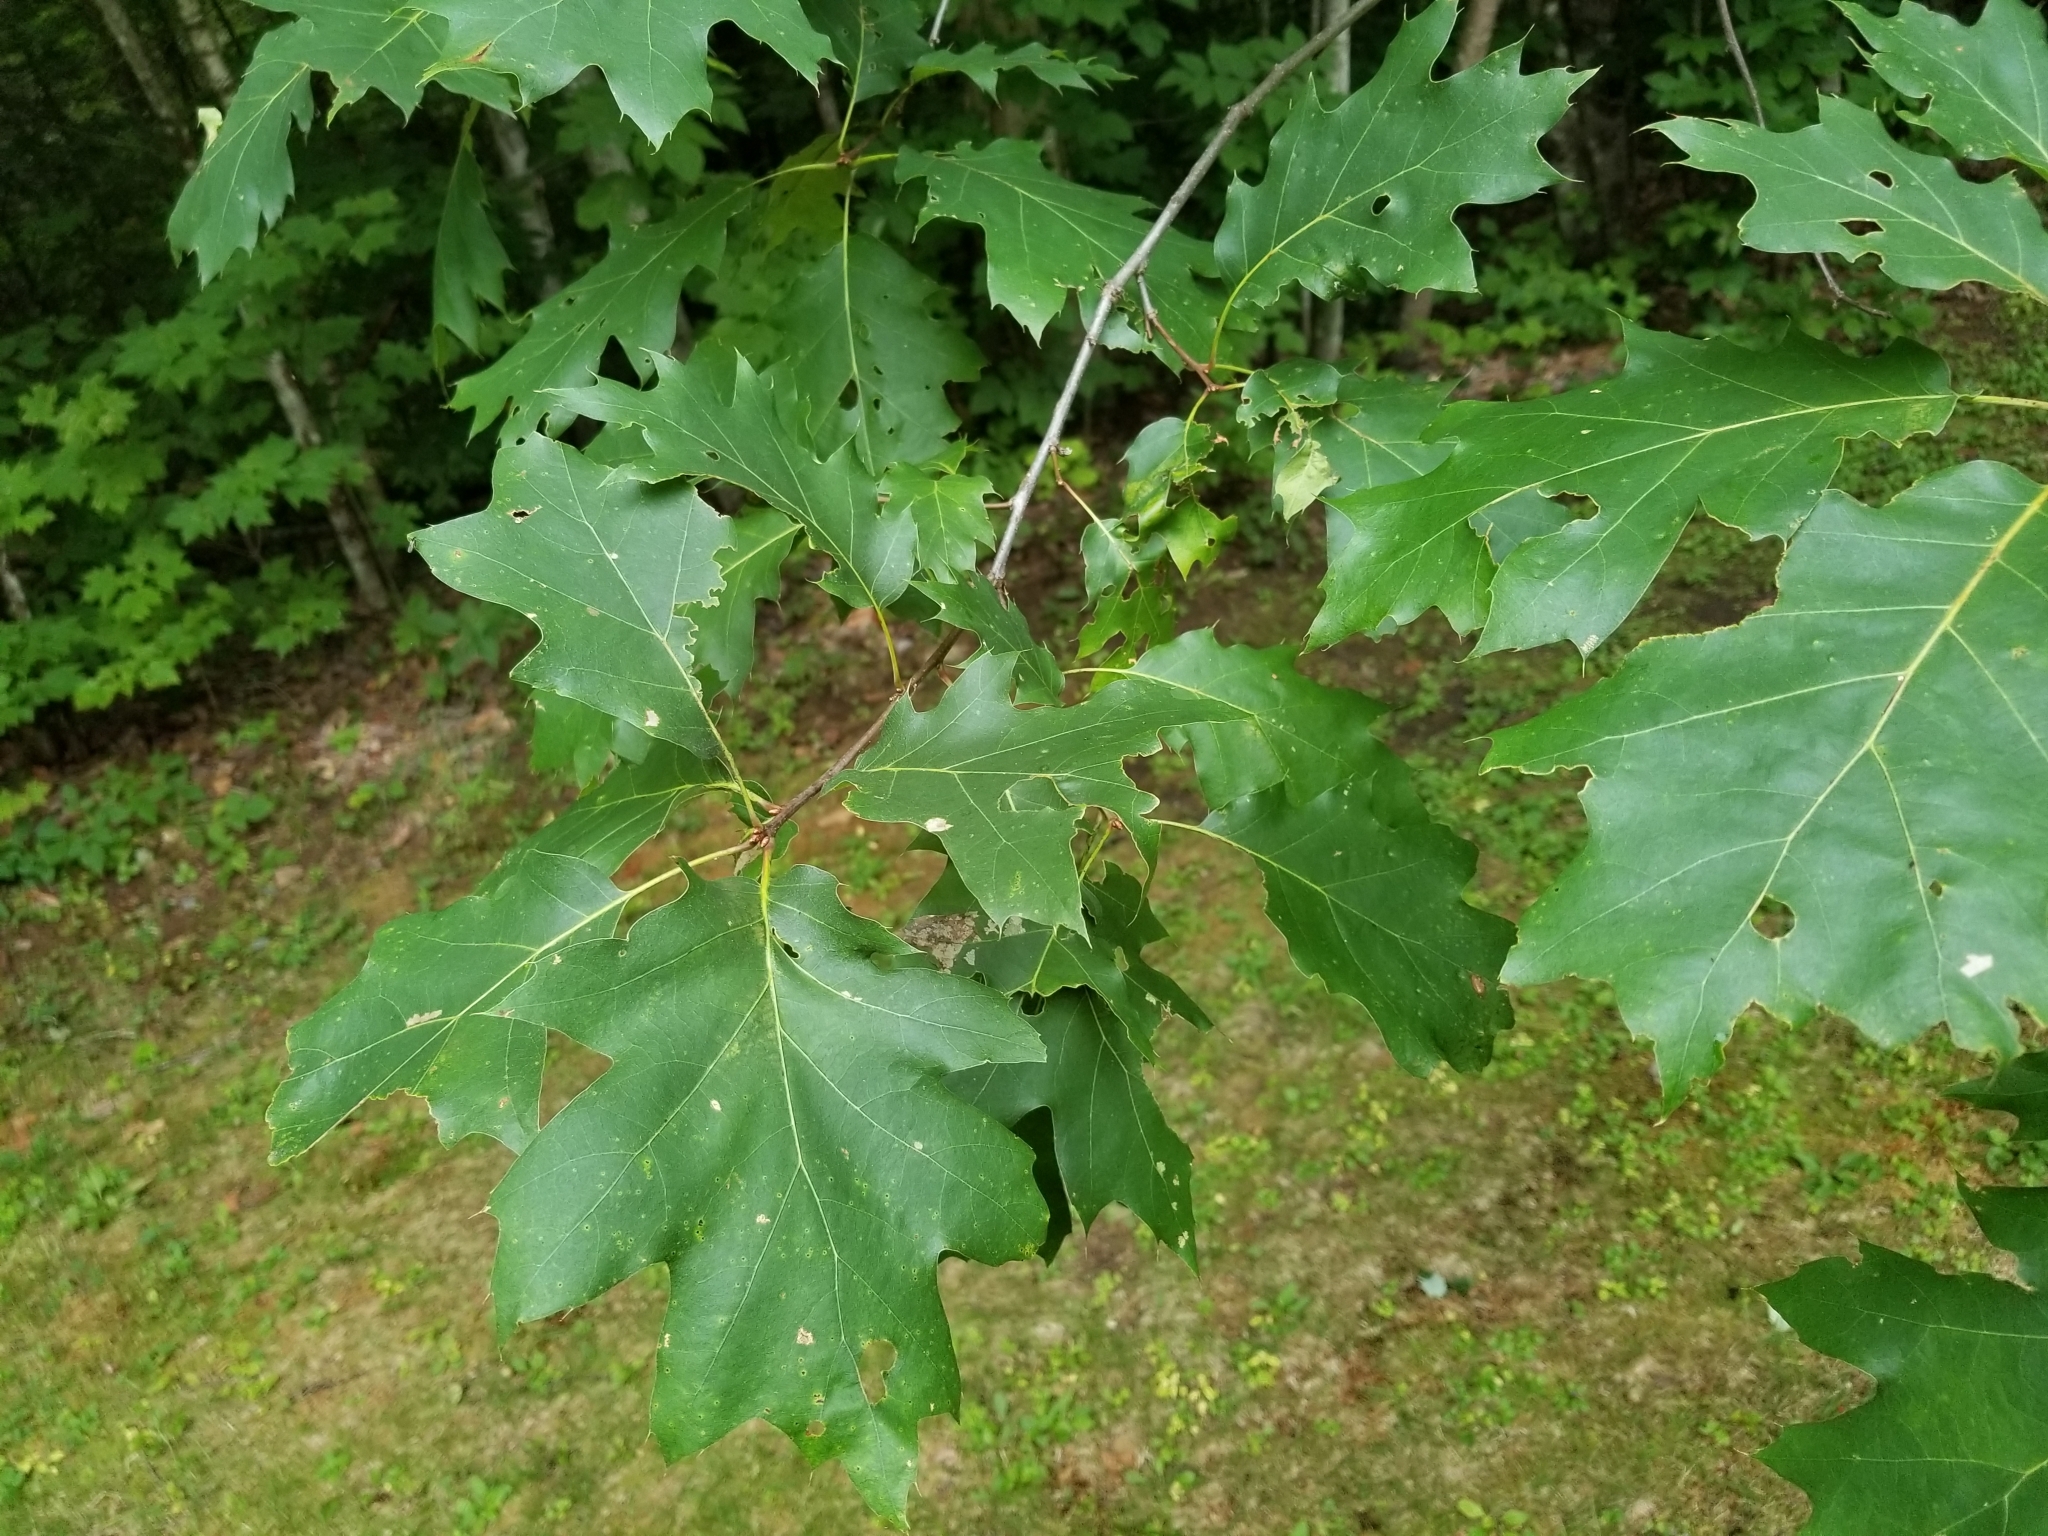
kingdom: Plantae
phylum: Tracheophyta
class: Magnoliopsida
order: Fagales
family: Fagaceae
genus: Quercus
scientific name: Quercus rubra
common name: Red oak
